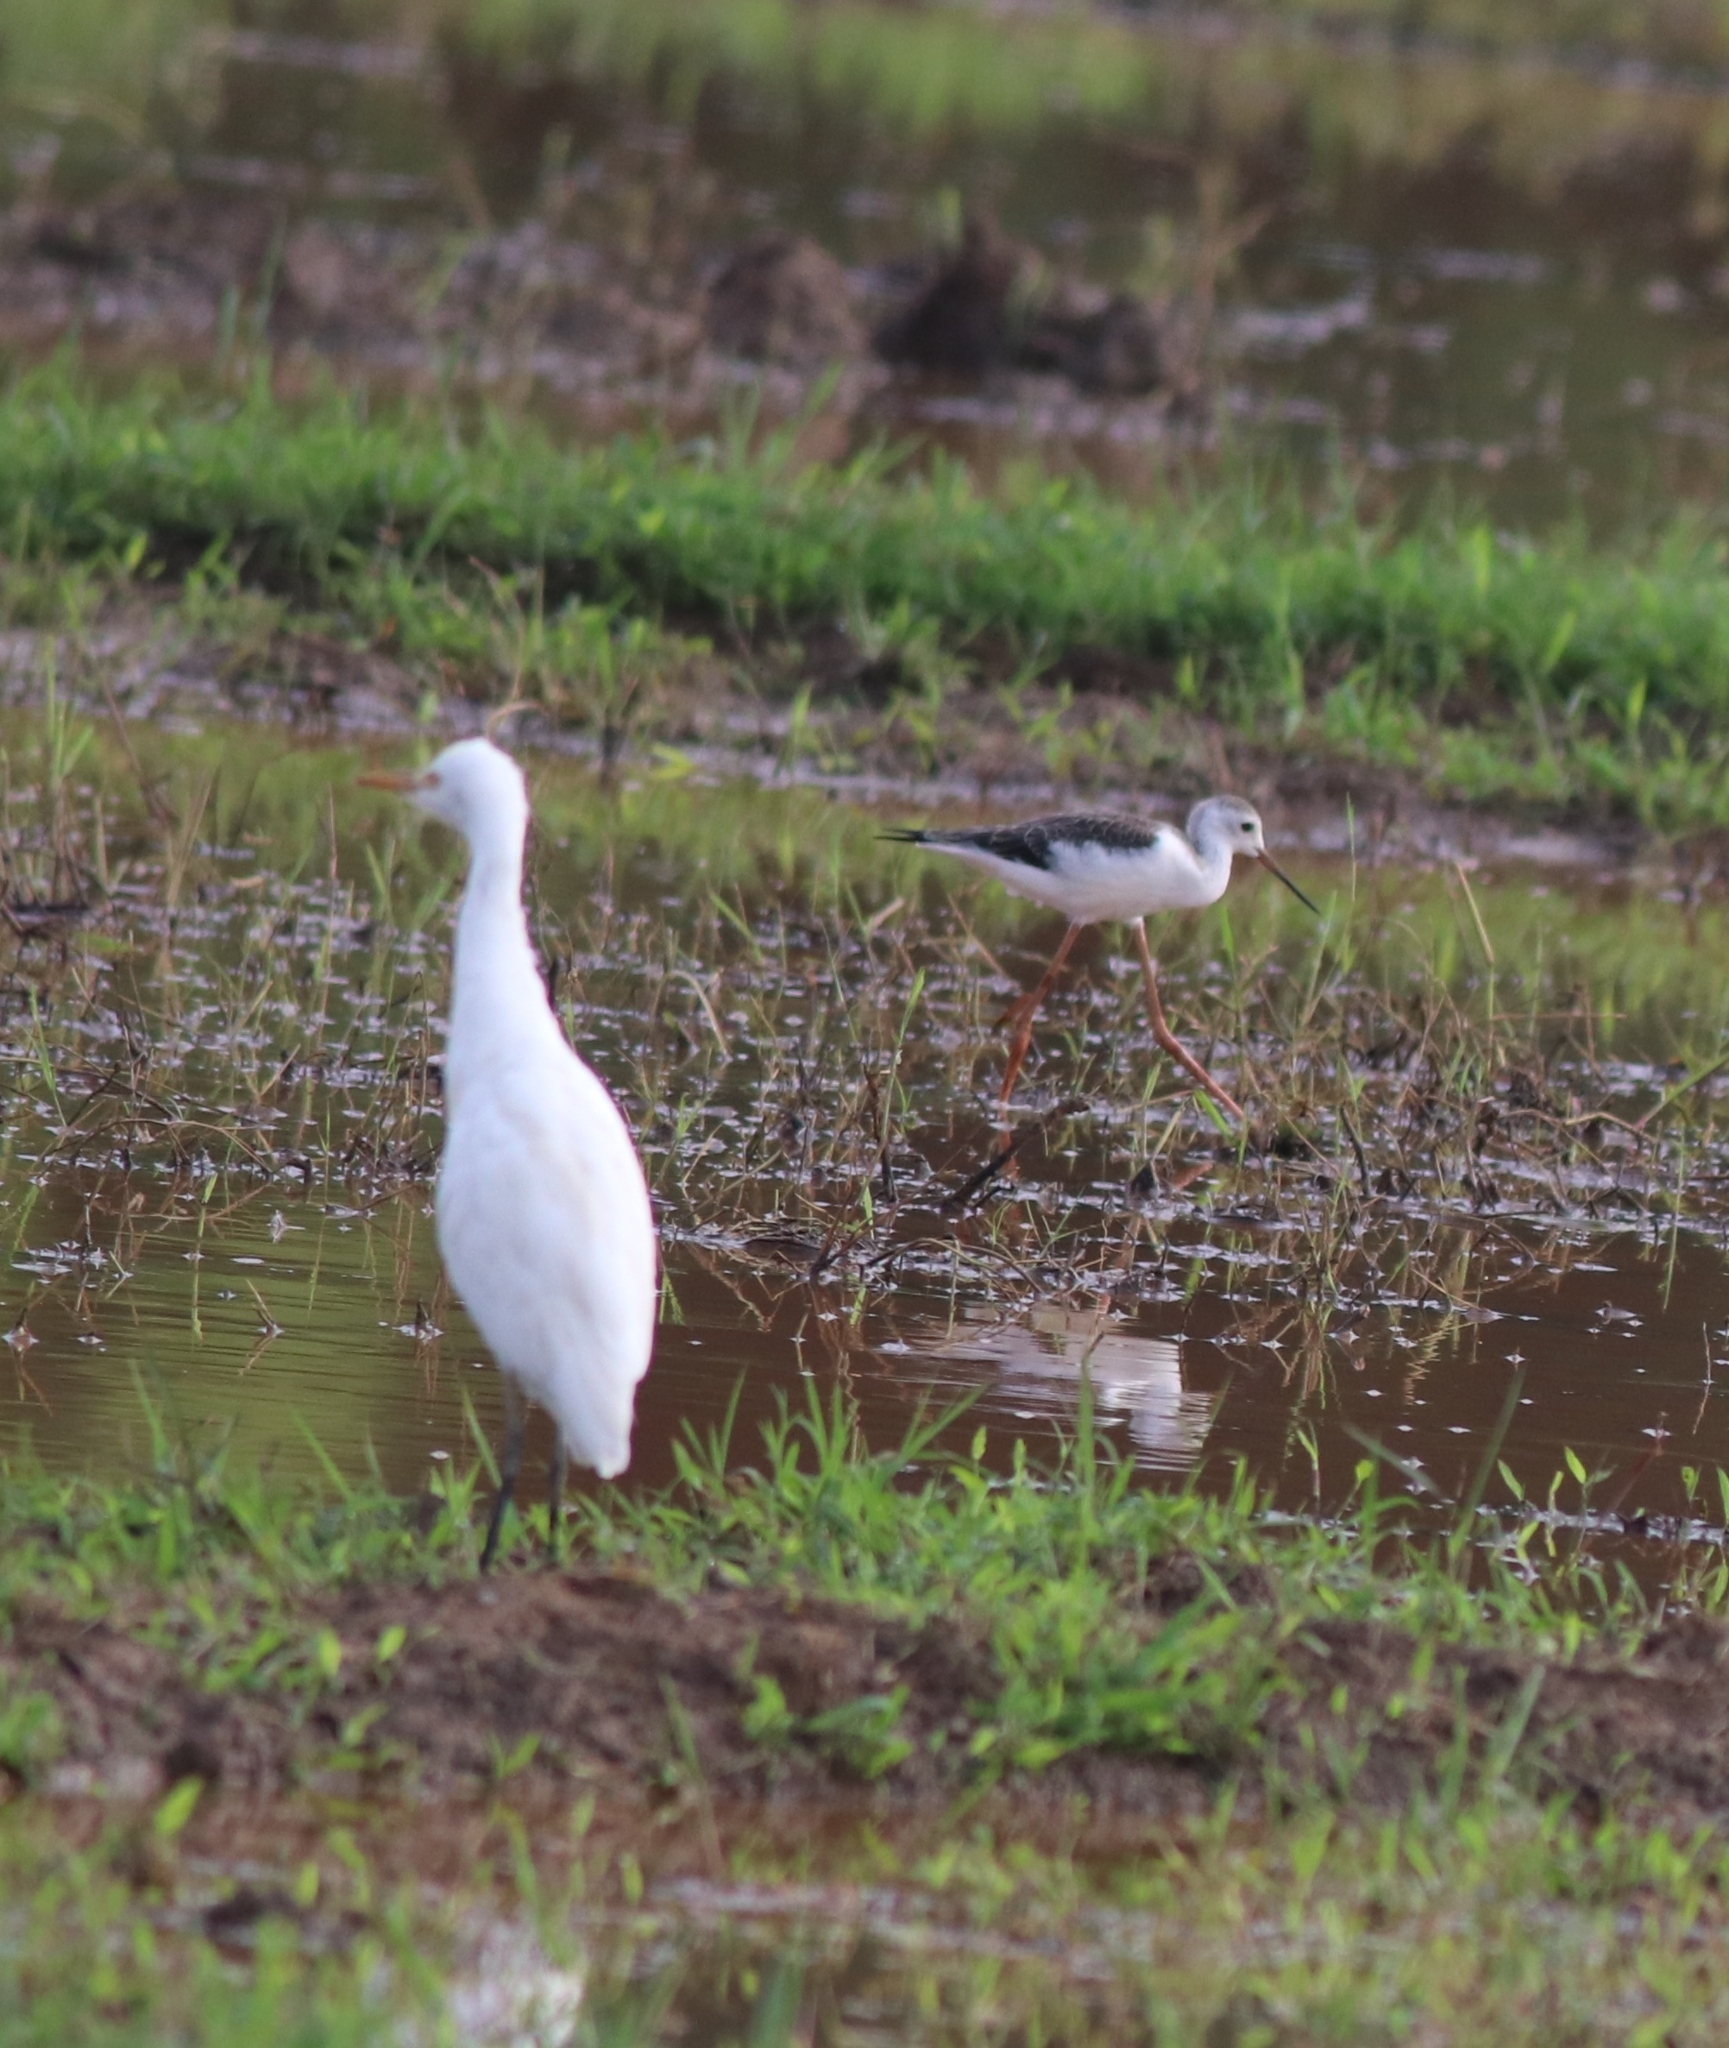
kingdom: Animalia
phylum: Chordata
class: Aves
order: Charadriiformes
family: Recurvirostridae
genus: Himantopus
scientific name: Himantopus himantopus
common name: Black-winged stilt
